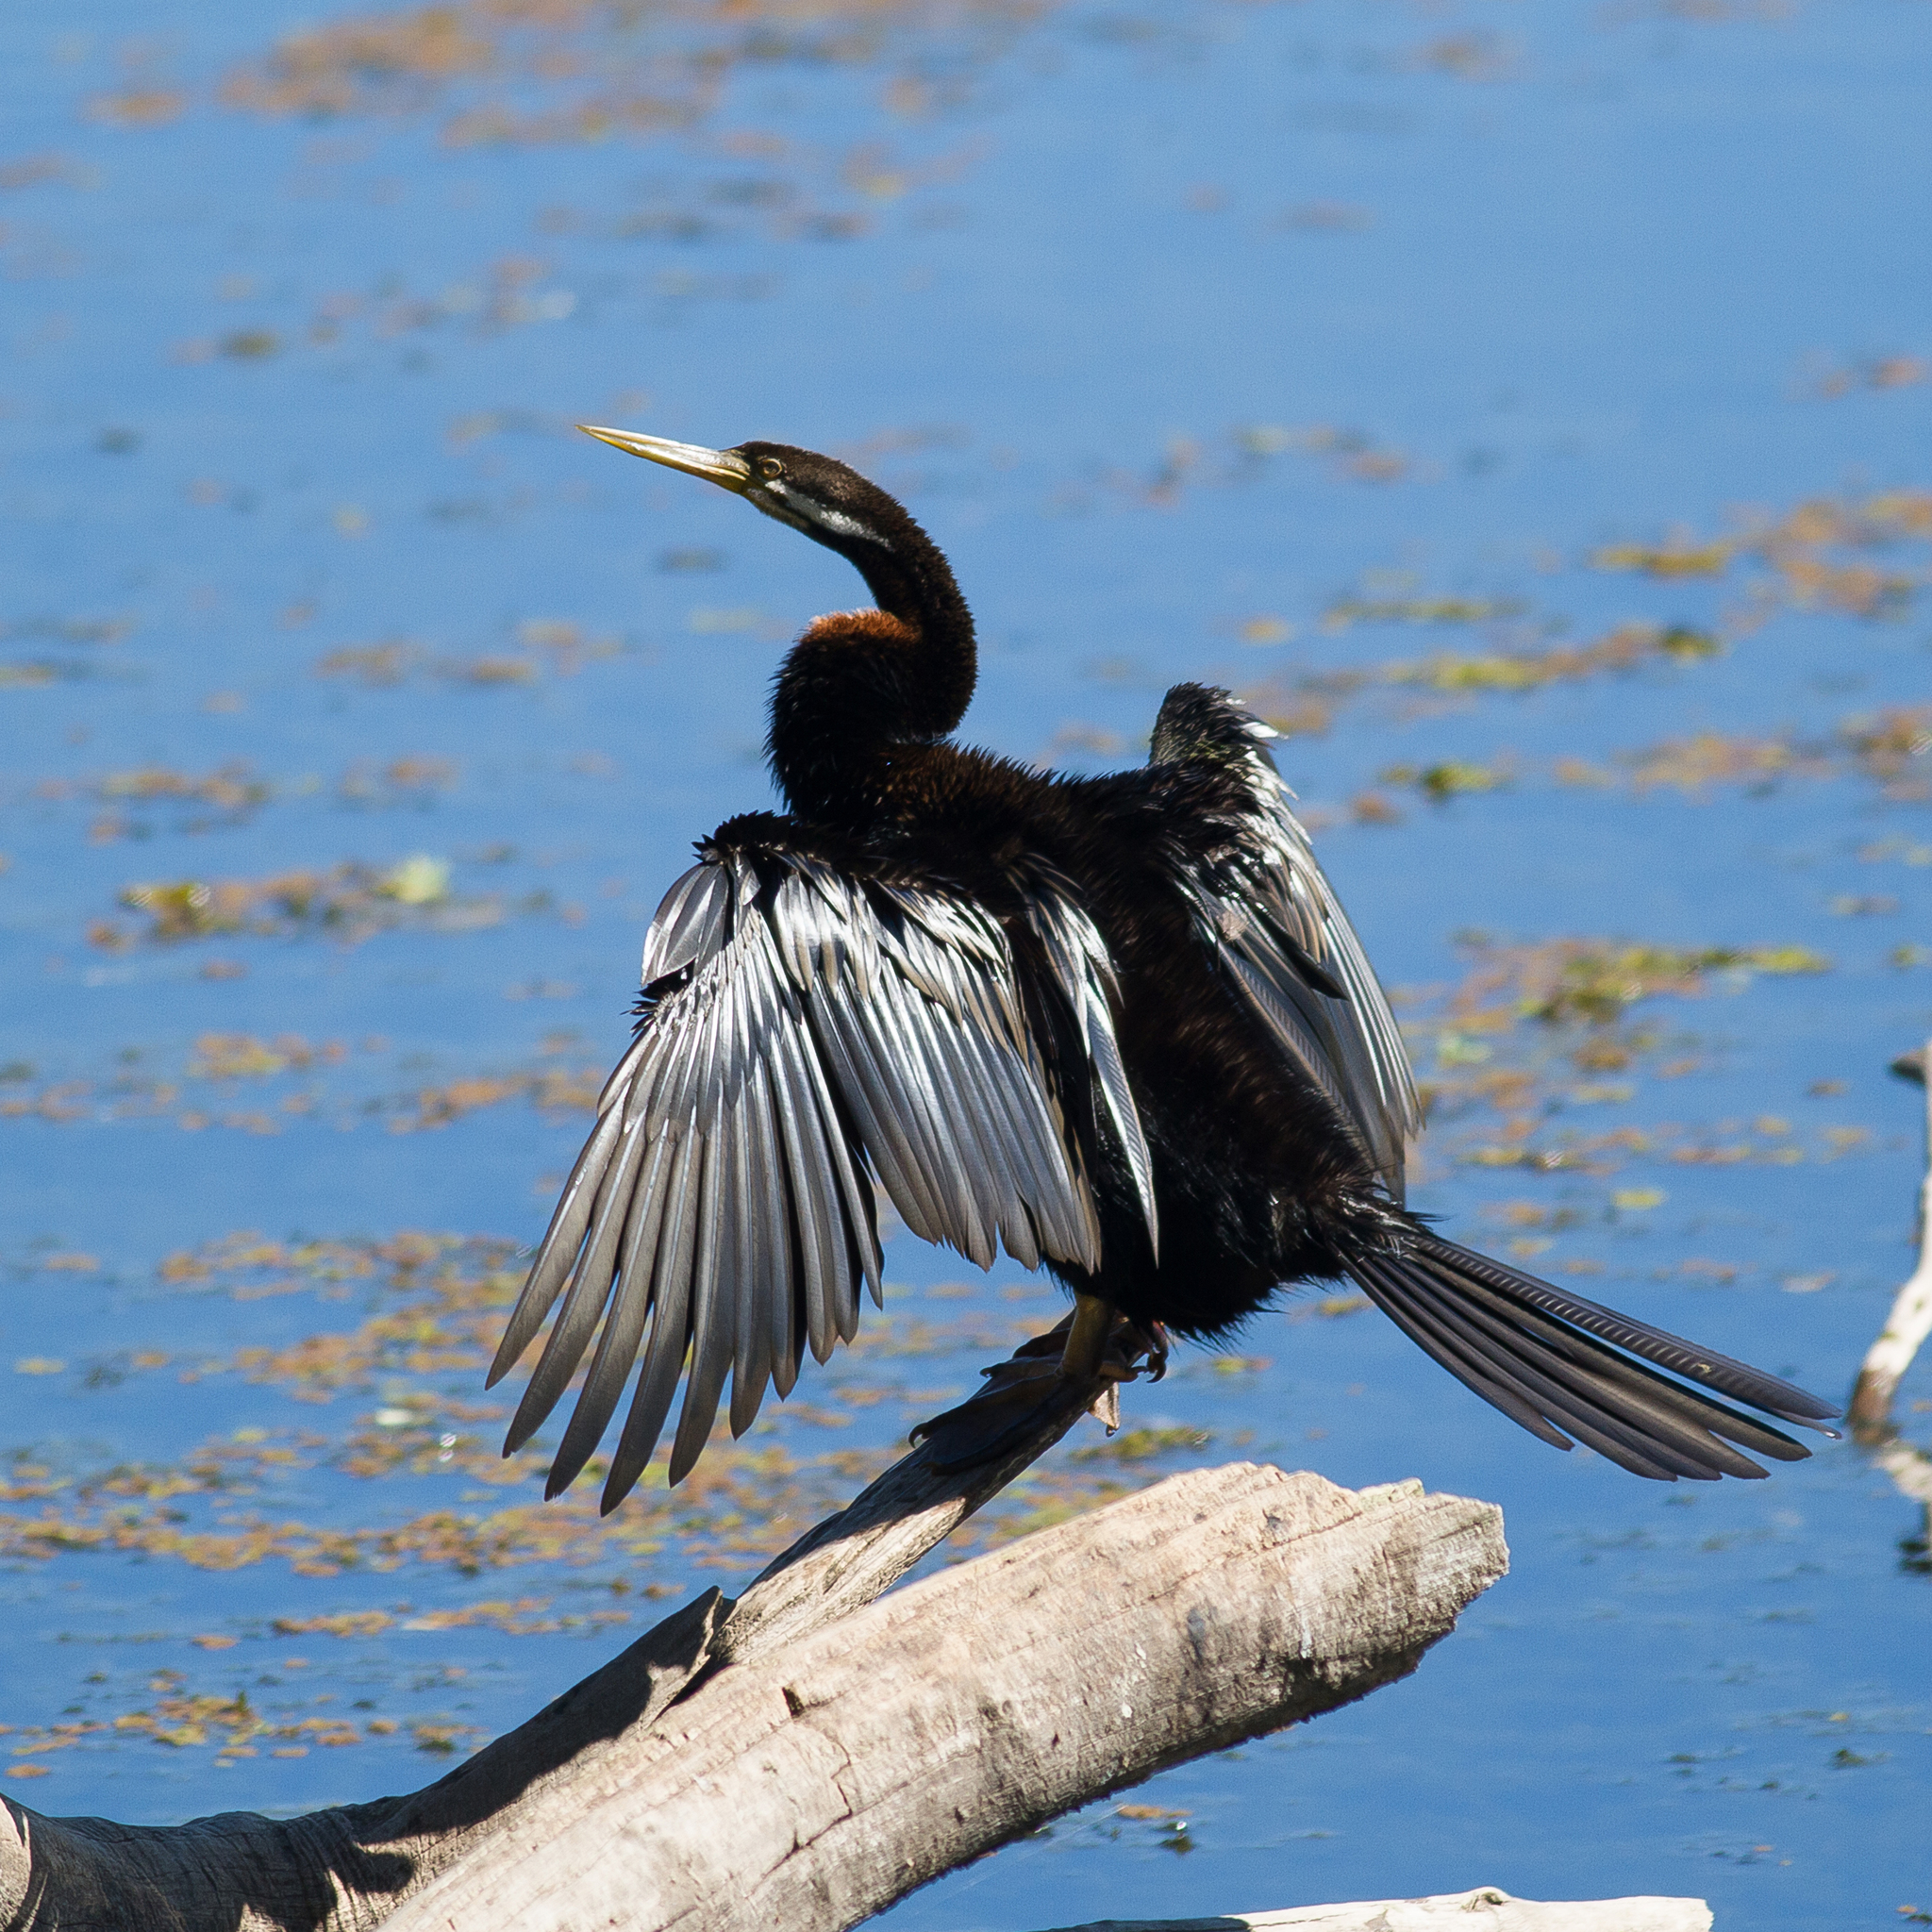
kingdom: Animalia
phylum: Chordata
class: Aves
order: Suliformes
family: Anhingidae
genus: Anhinga
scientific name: Anhinga novaehollandiae
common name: Australasian darter
